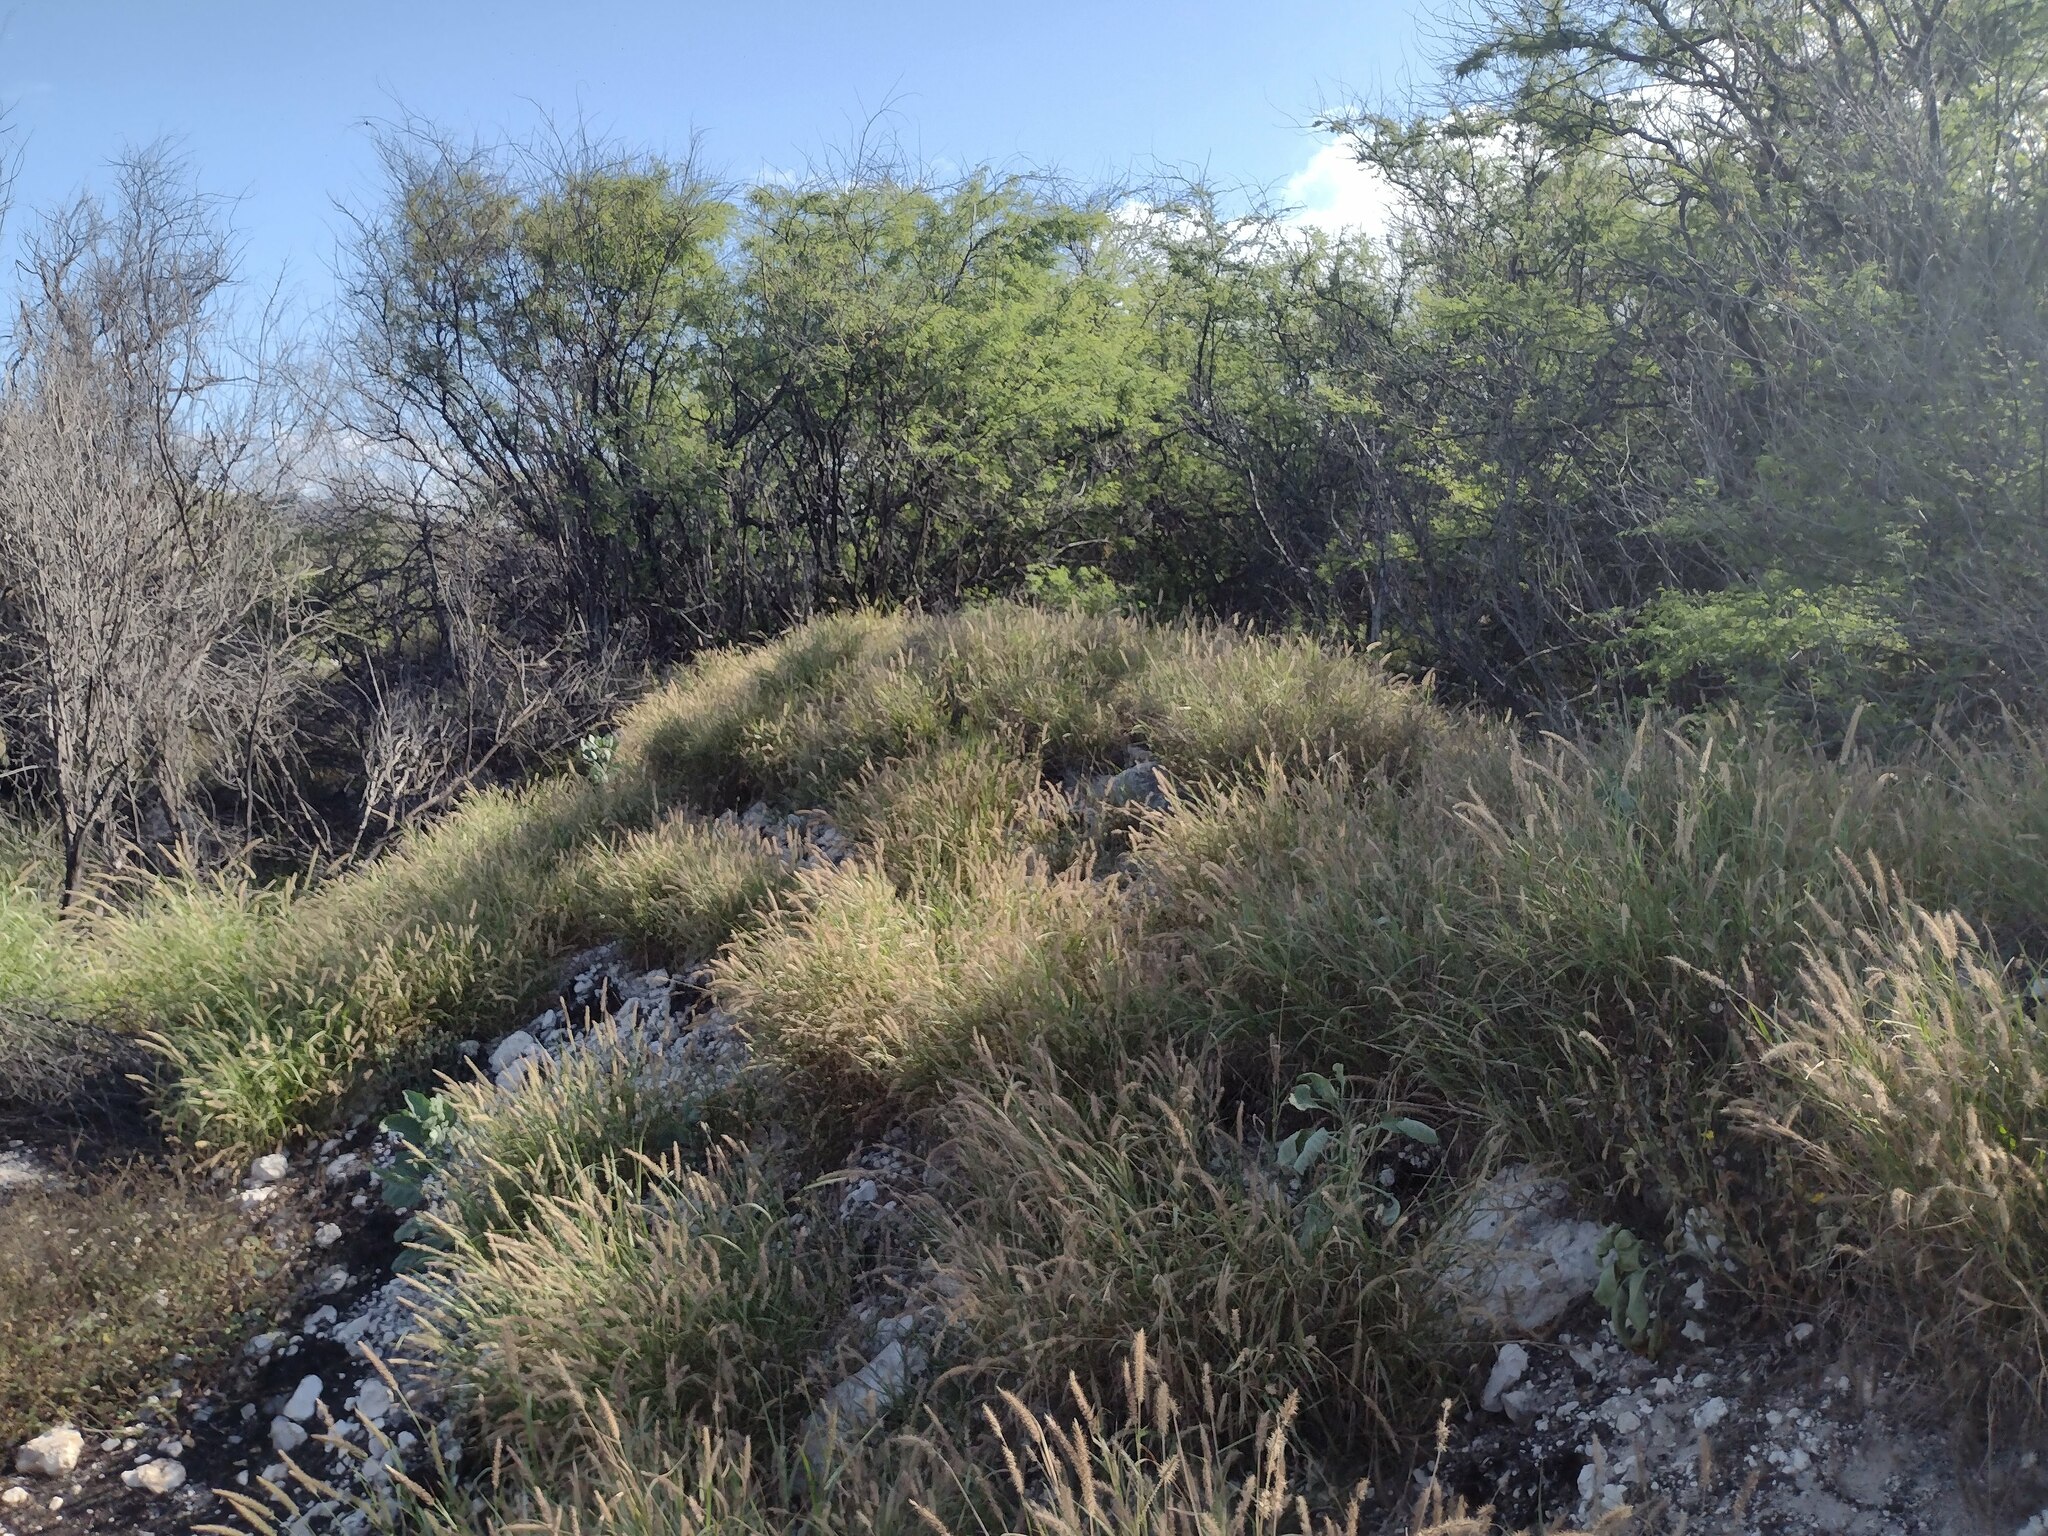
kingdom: Plantae
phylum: Tracheophyta
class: Magnoliopsida
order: Fabales
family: Fabaceae
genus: Prosopis
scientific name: Prosopis pallida
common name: Mesquite
